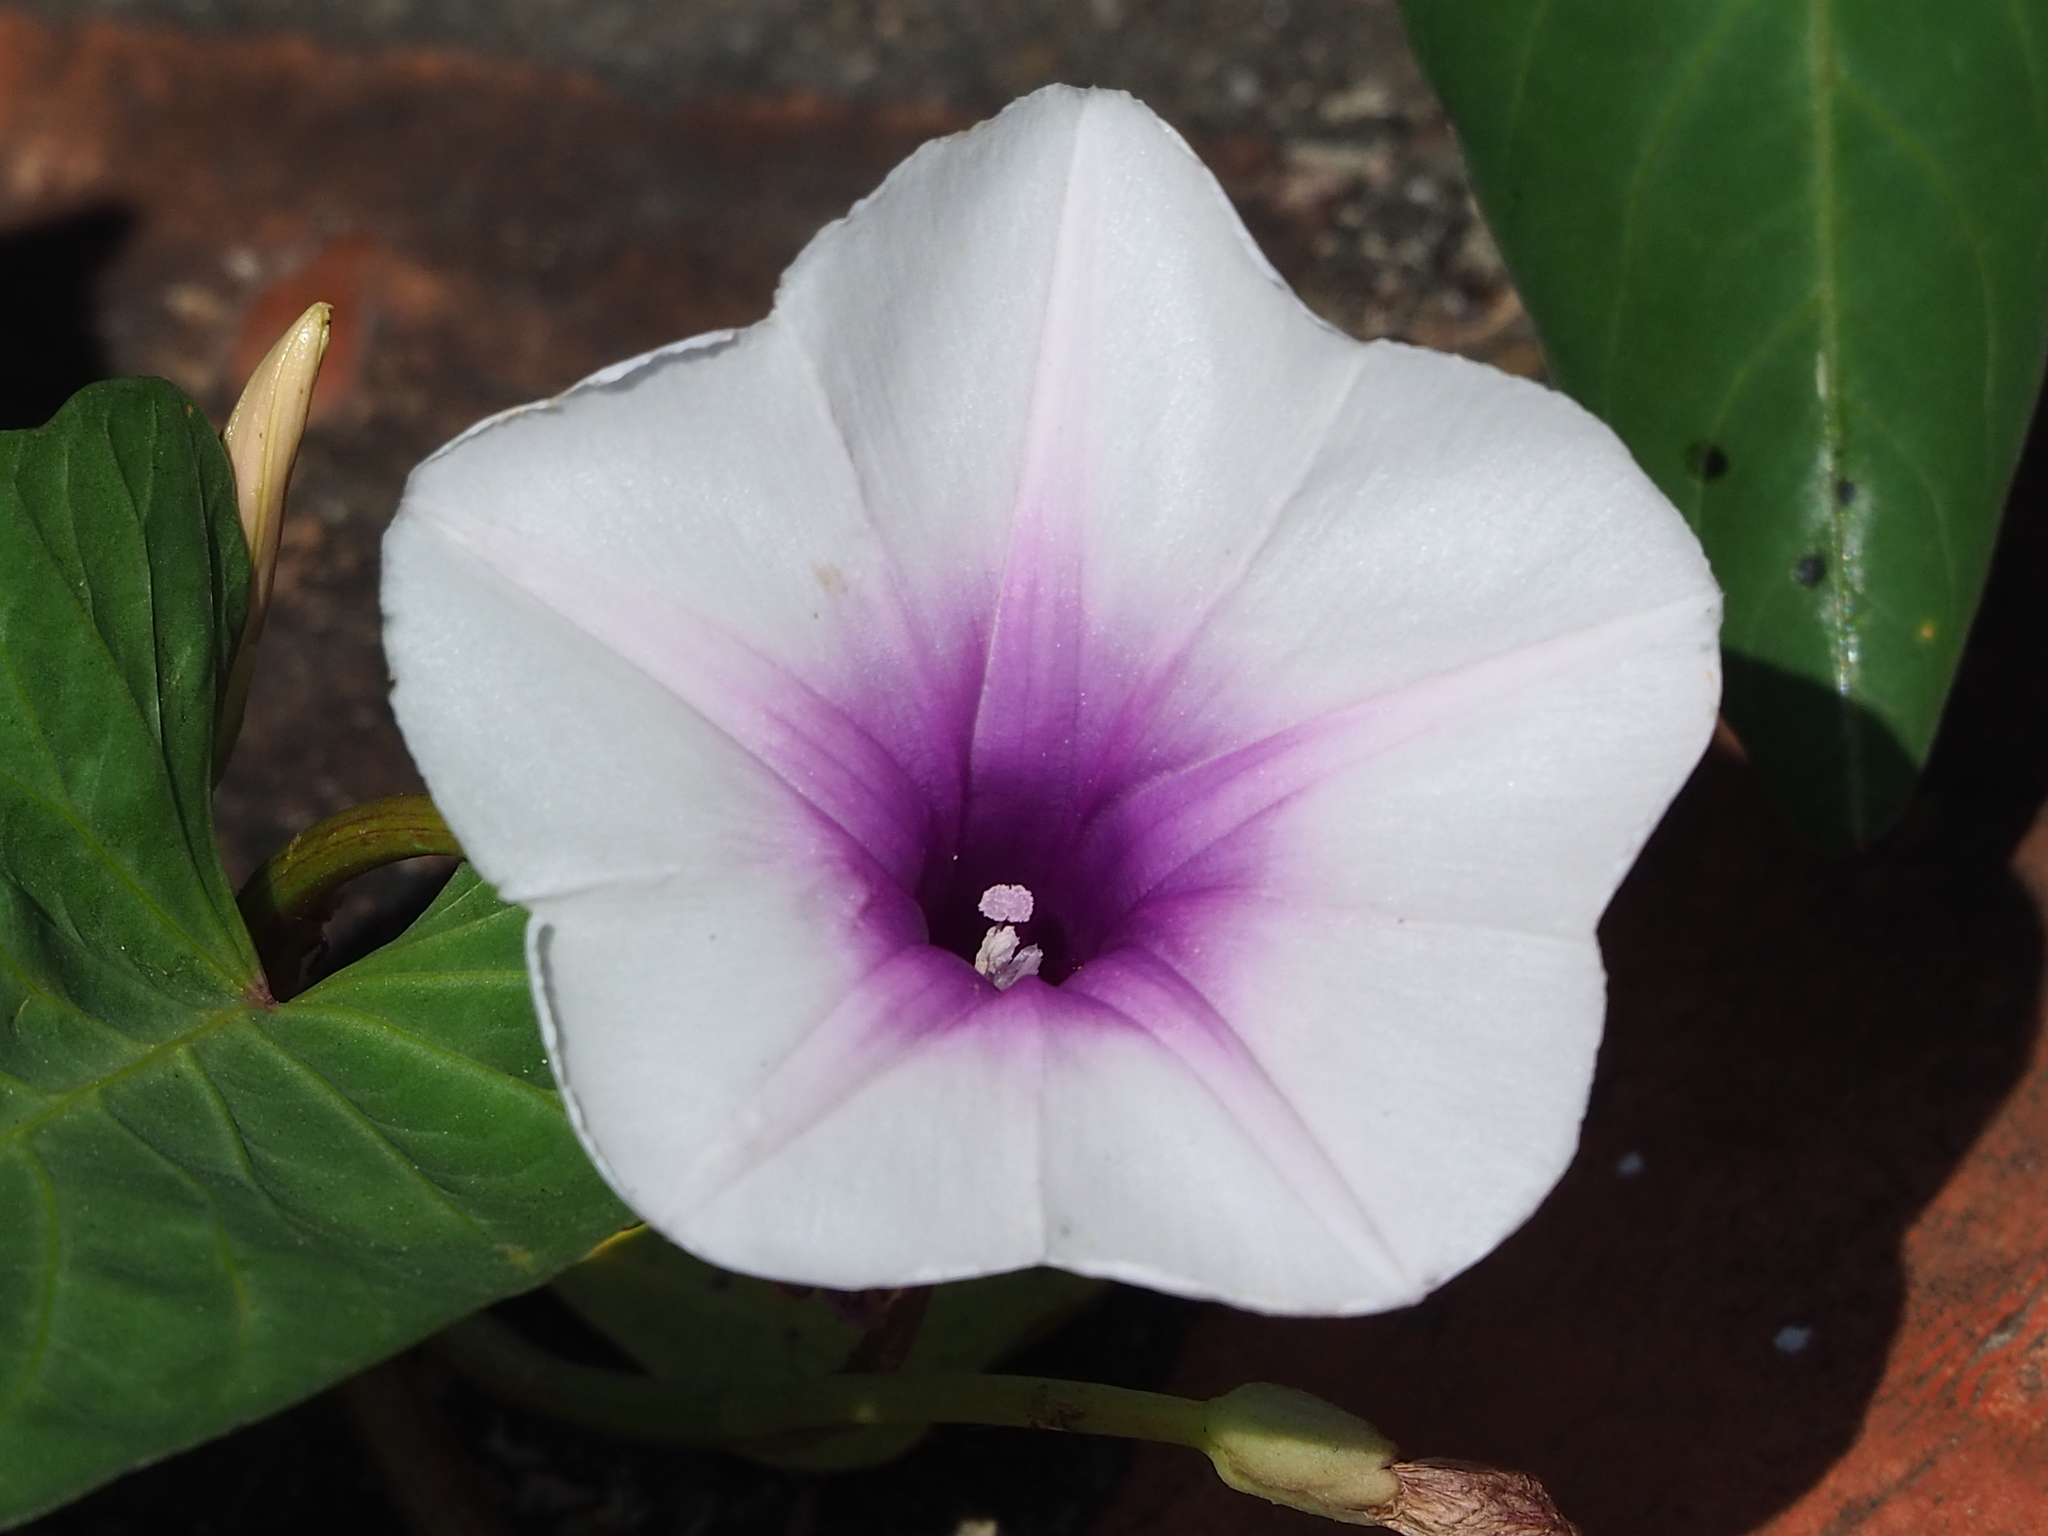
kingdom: Plantae
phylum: Tracheophyta
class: Magnoliopsida
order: Solanales
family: Convolvulaceae
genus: Ipomoea
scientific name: Ipomoea aquatica
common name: Swamp morning-glory
